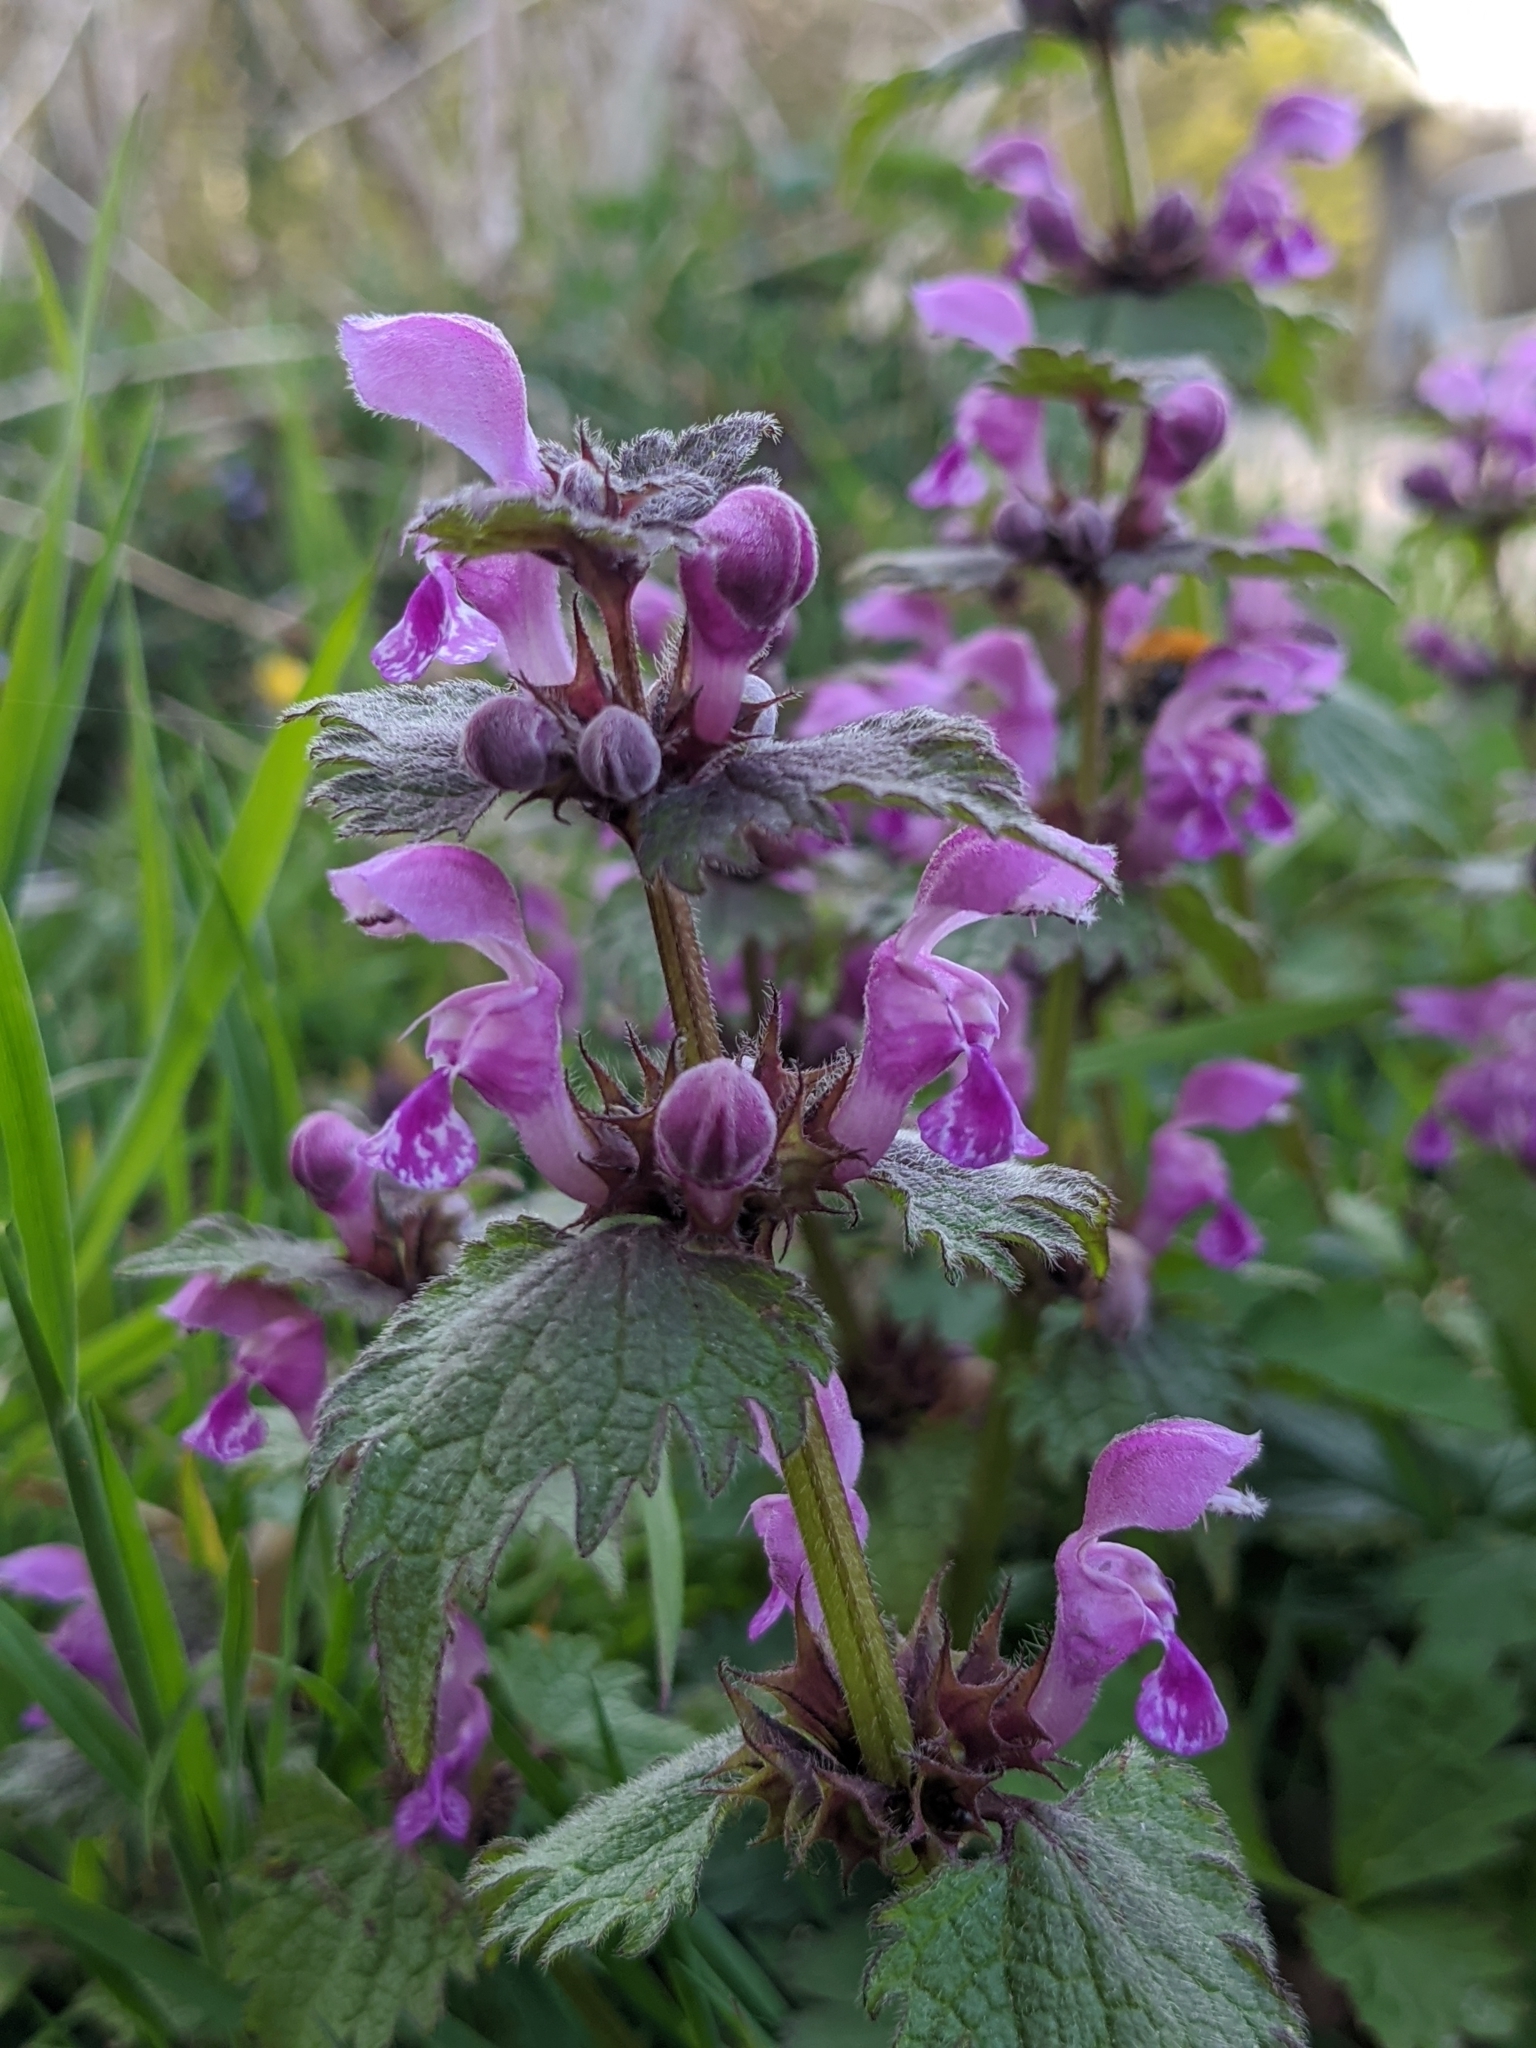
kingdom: Plantae
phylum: Tracheophyta
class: Magnoliopsida
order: Lamiales
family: Lamiaceae
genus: Lamium
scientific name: Lamium maculatum
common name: Spotted dead-nettle
